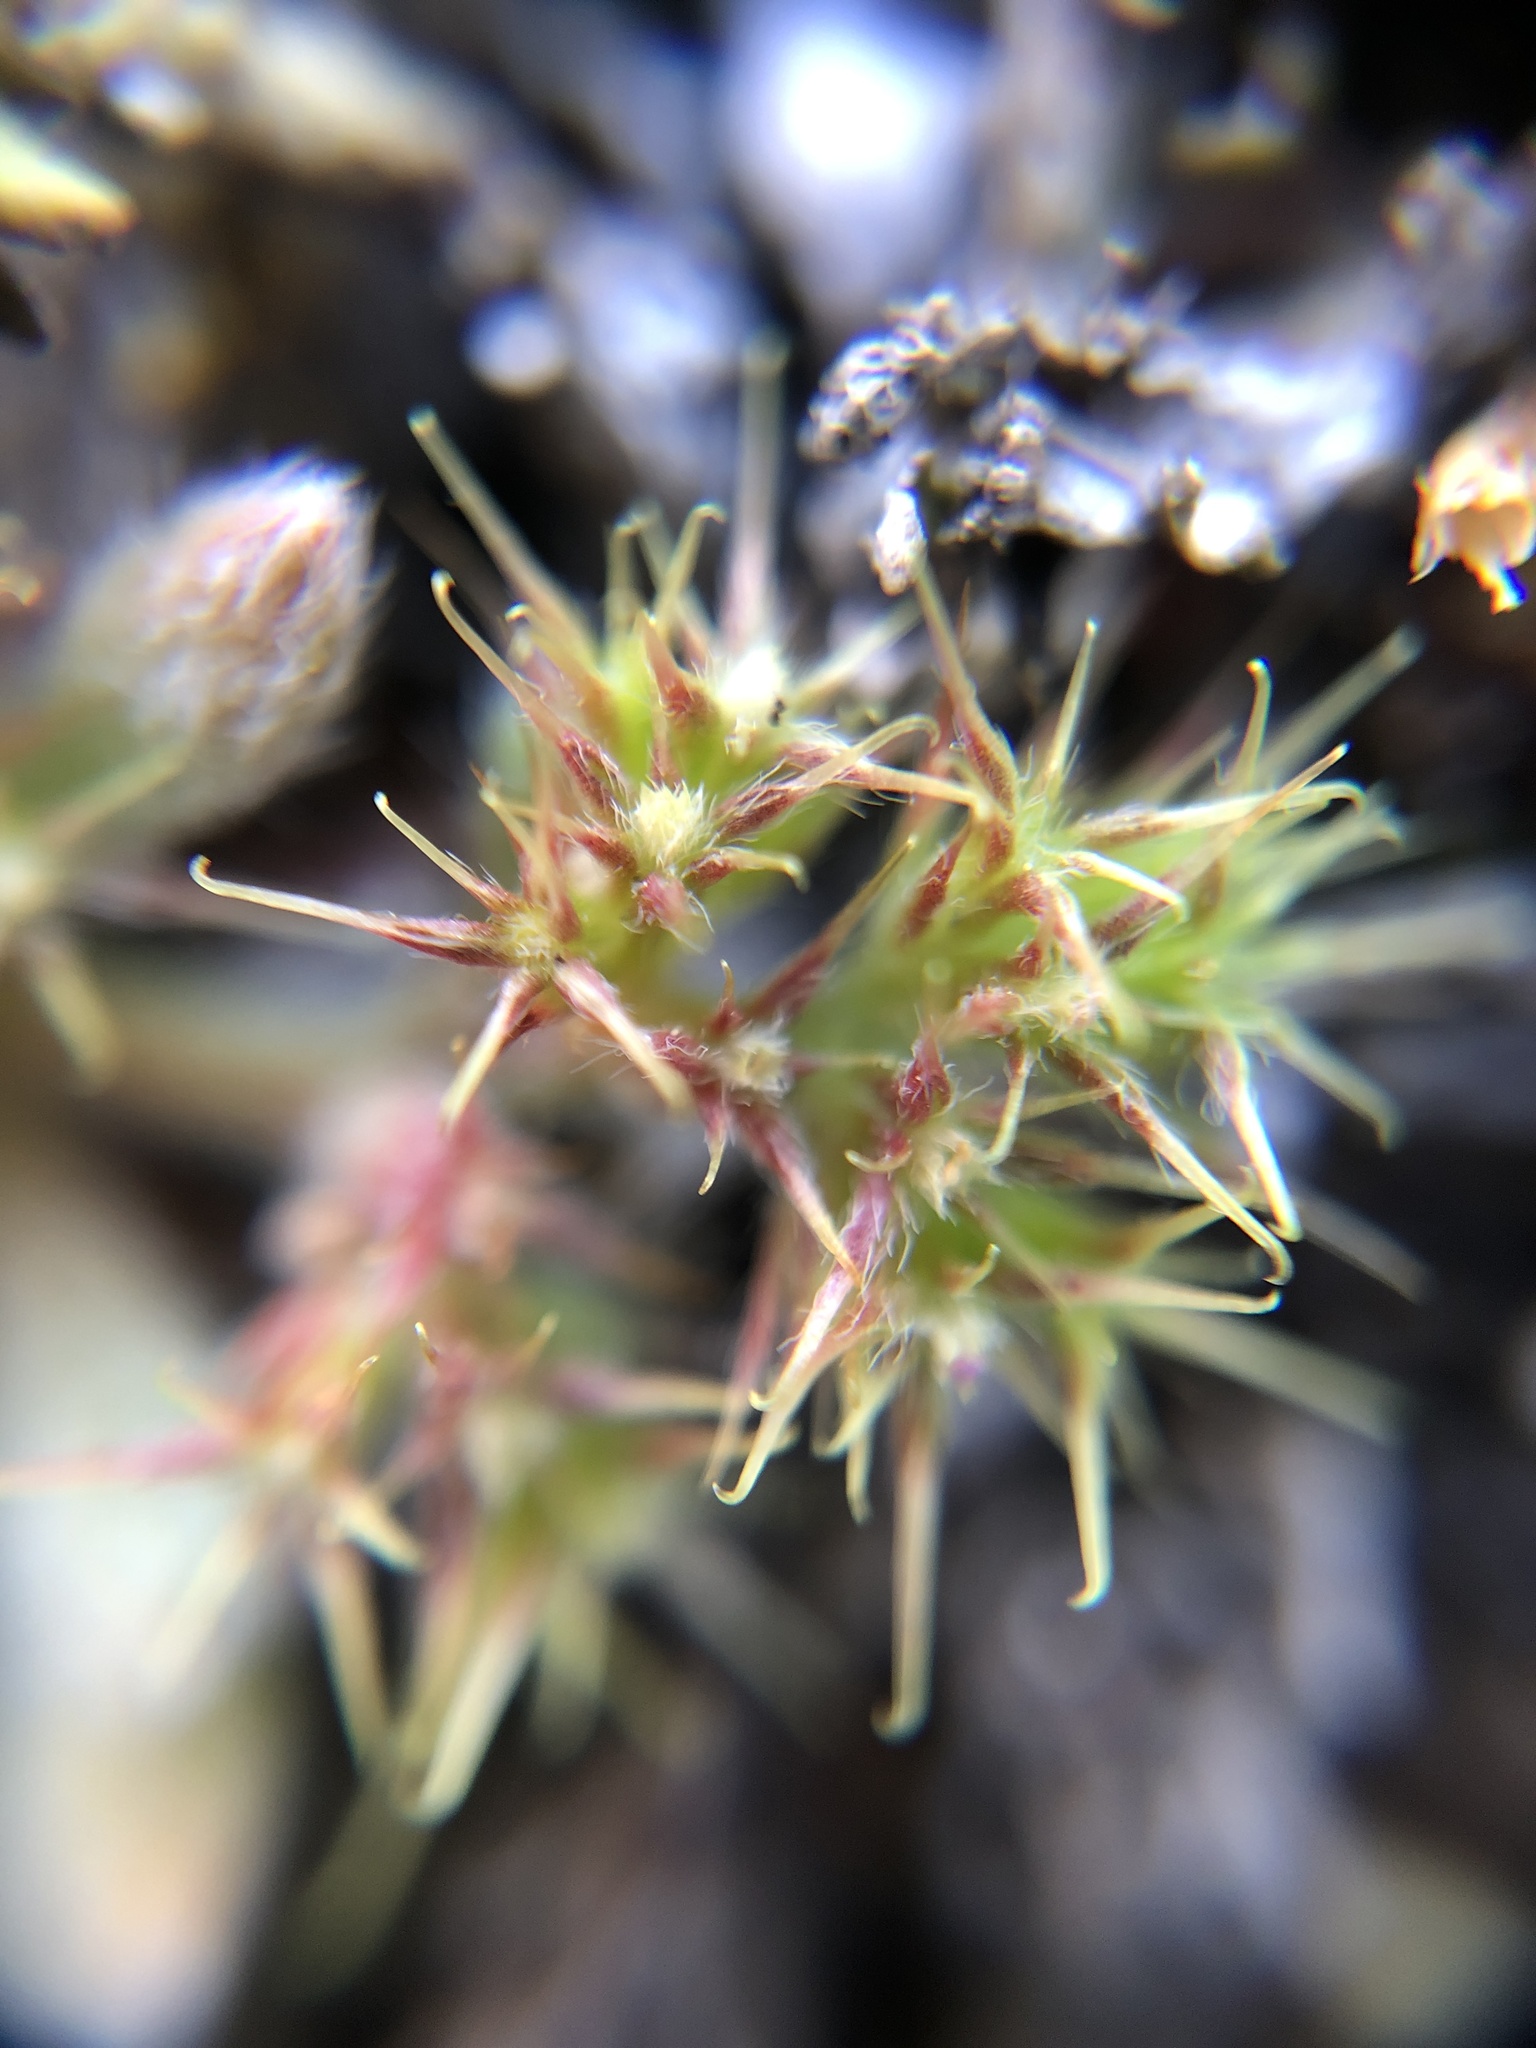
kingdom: Plantae
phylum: Tracheophyta
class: Magnoliopsida
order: Caryophyllales
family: Polygonaceae
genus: Chorizanthe
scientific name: Chorizanthe minutiflora
